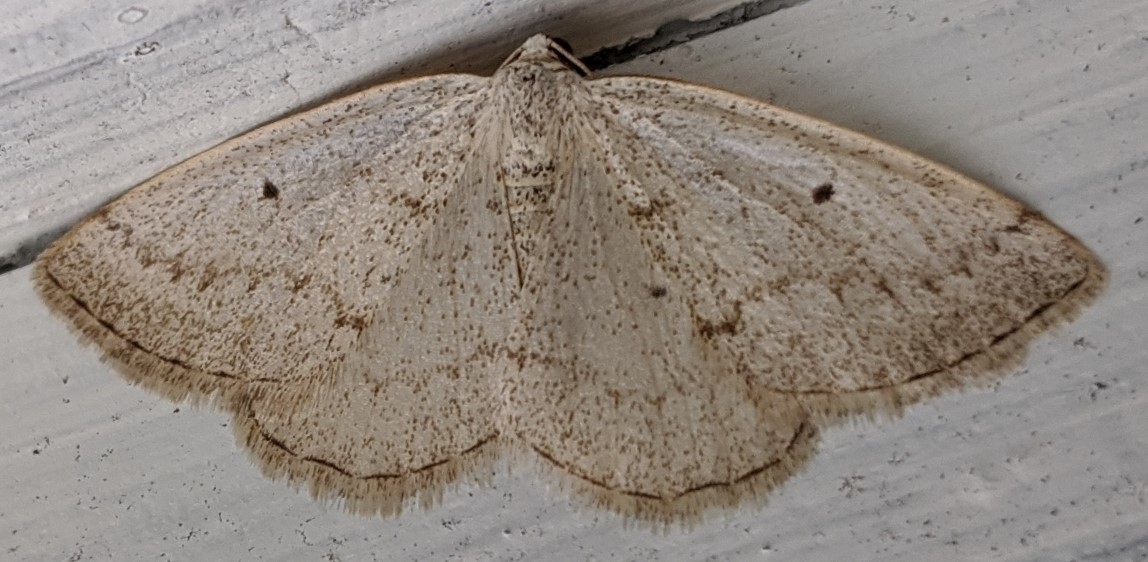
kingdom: Animalia
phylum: Arthropoda
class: Insecta
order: Lepidoptera
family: Geometridae
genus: Lomographa
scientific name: Lomographa glomeraria
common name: Gray spring moth
